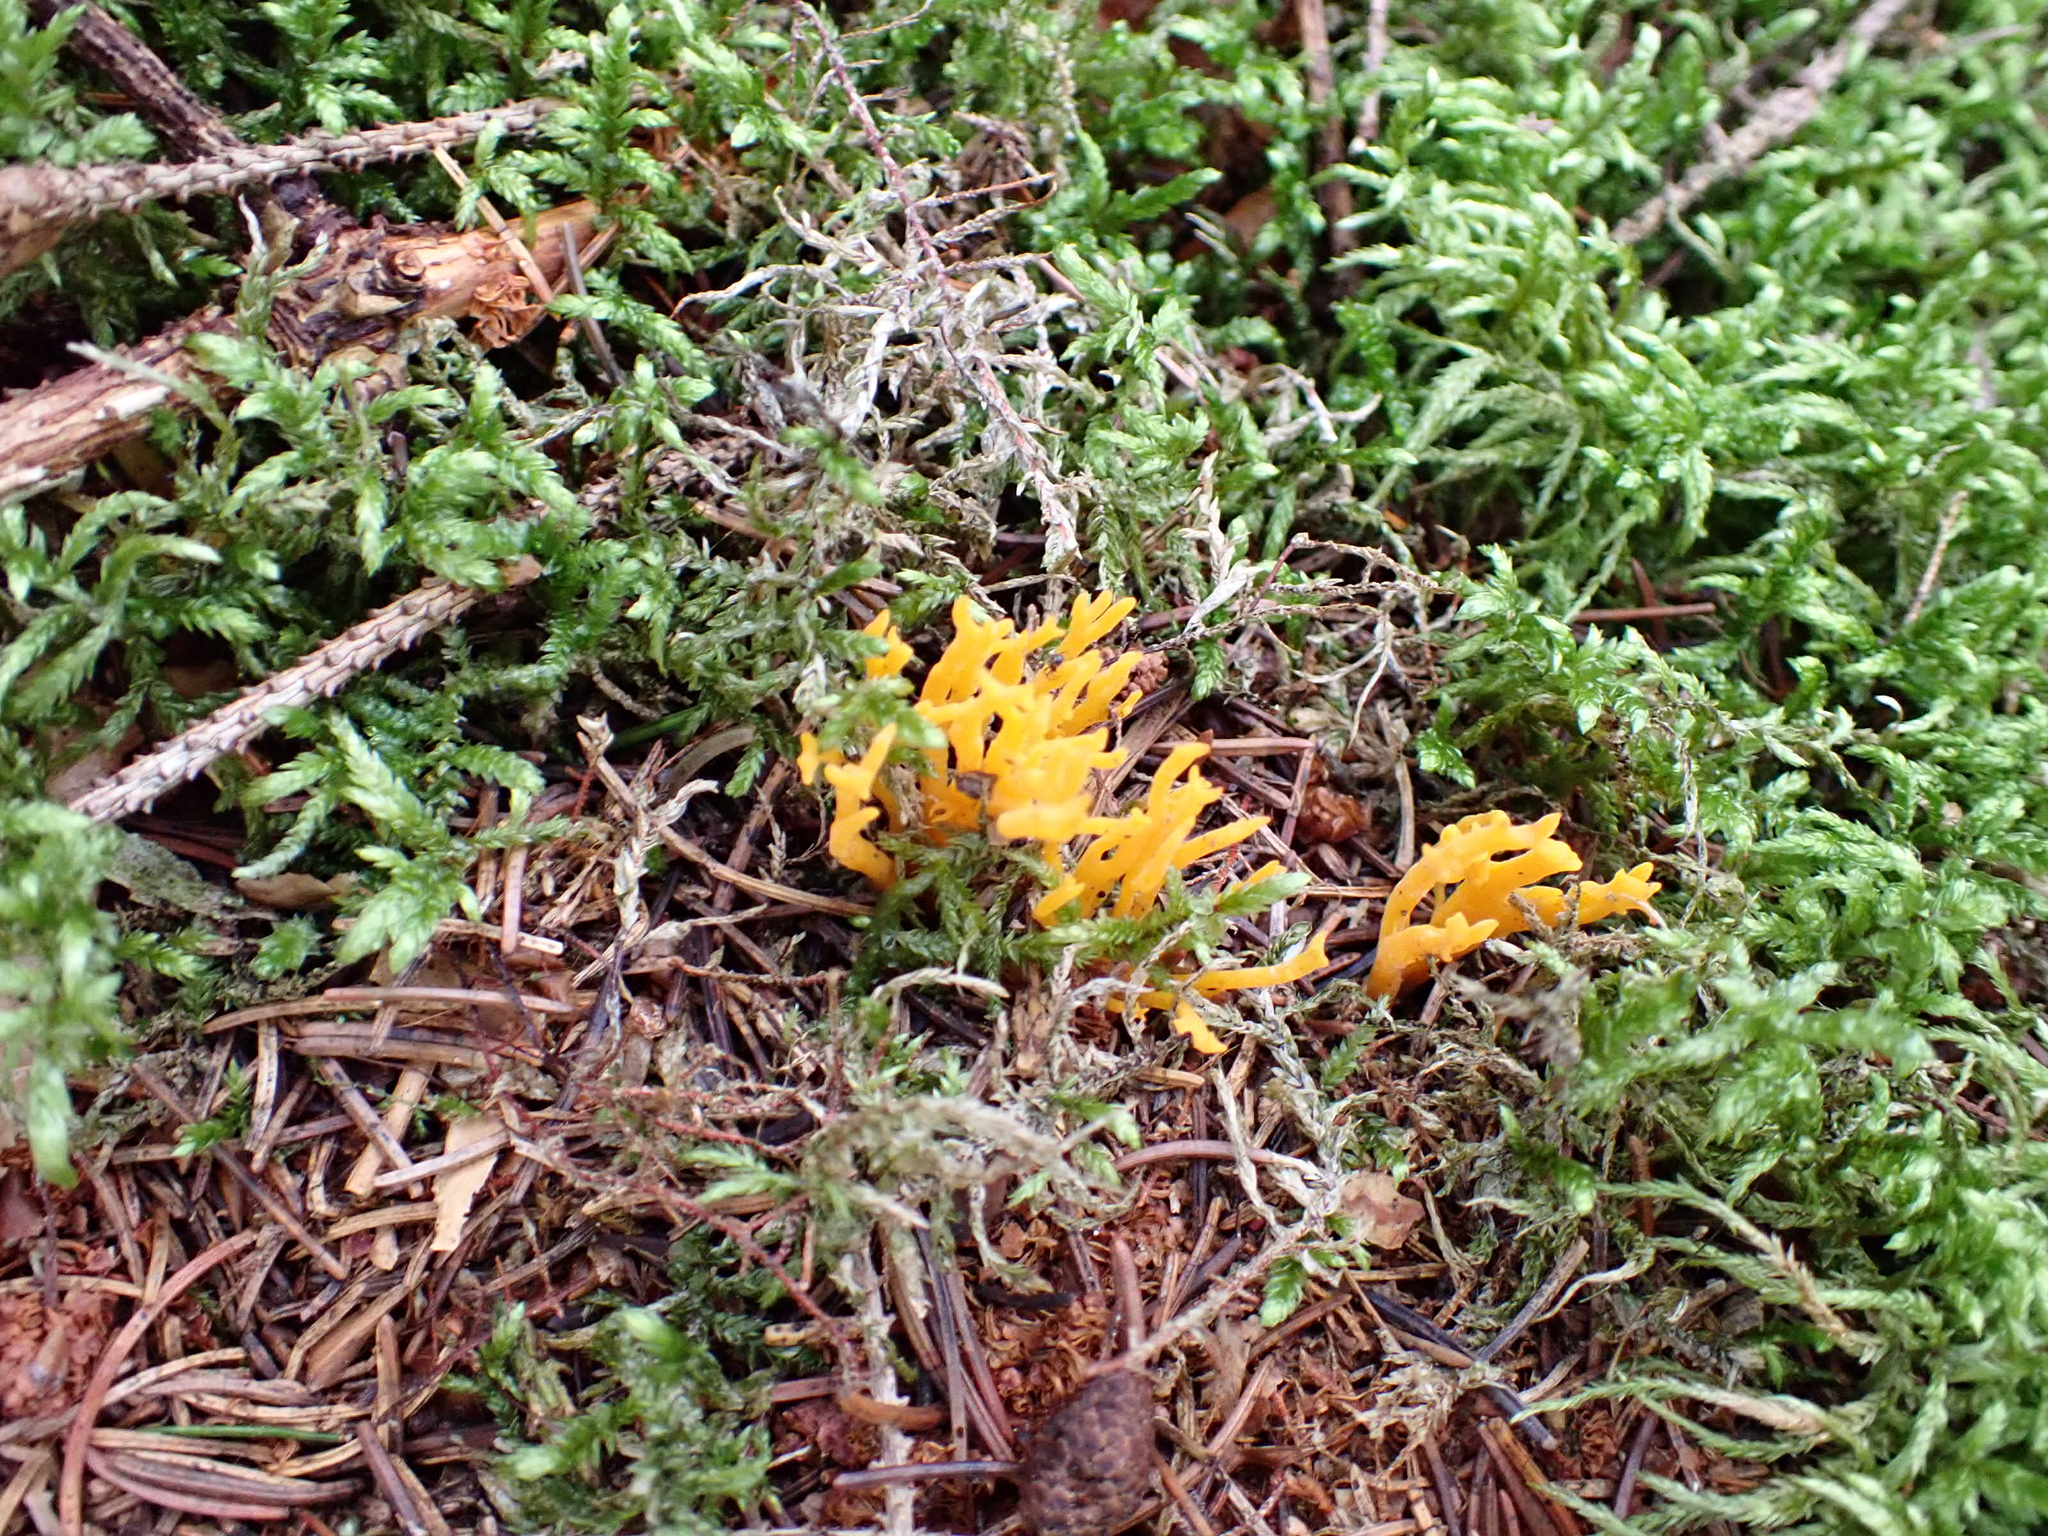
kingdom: Fungi
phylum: Basidiomycota
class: Dacrymycetes
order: Dacrymycetales
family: Dacrymycetaceae
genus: Calocera
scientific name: Calocera viscosa
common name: Yellow stagshorn
